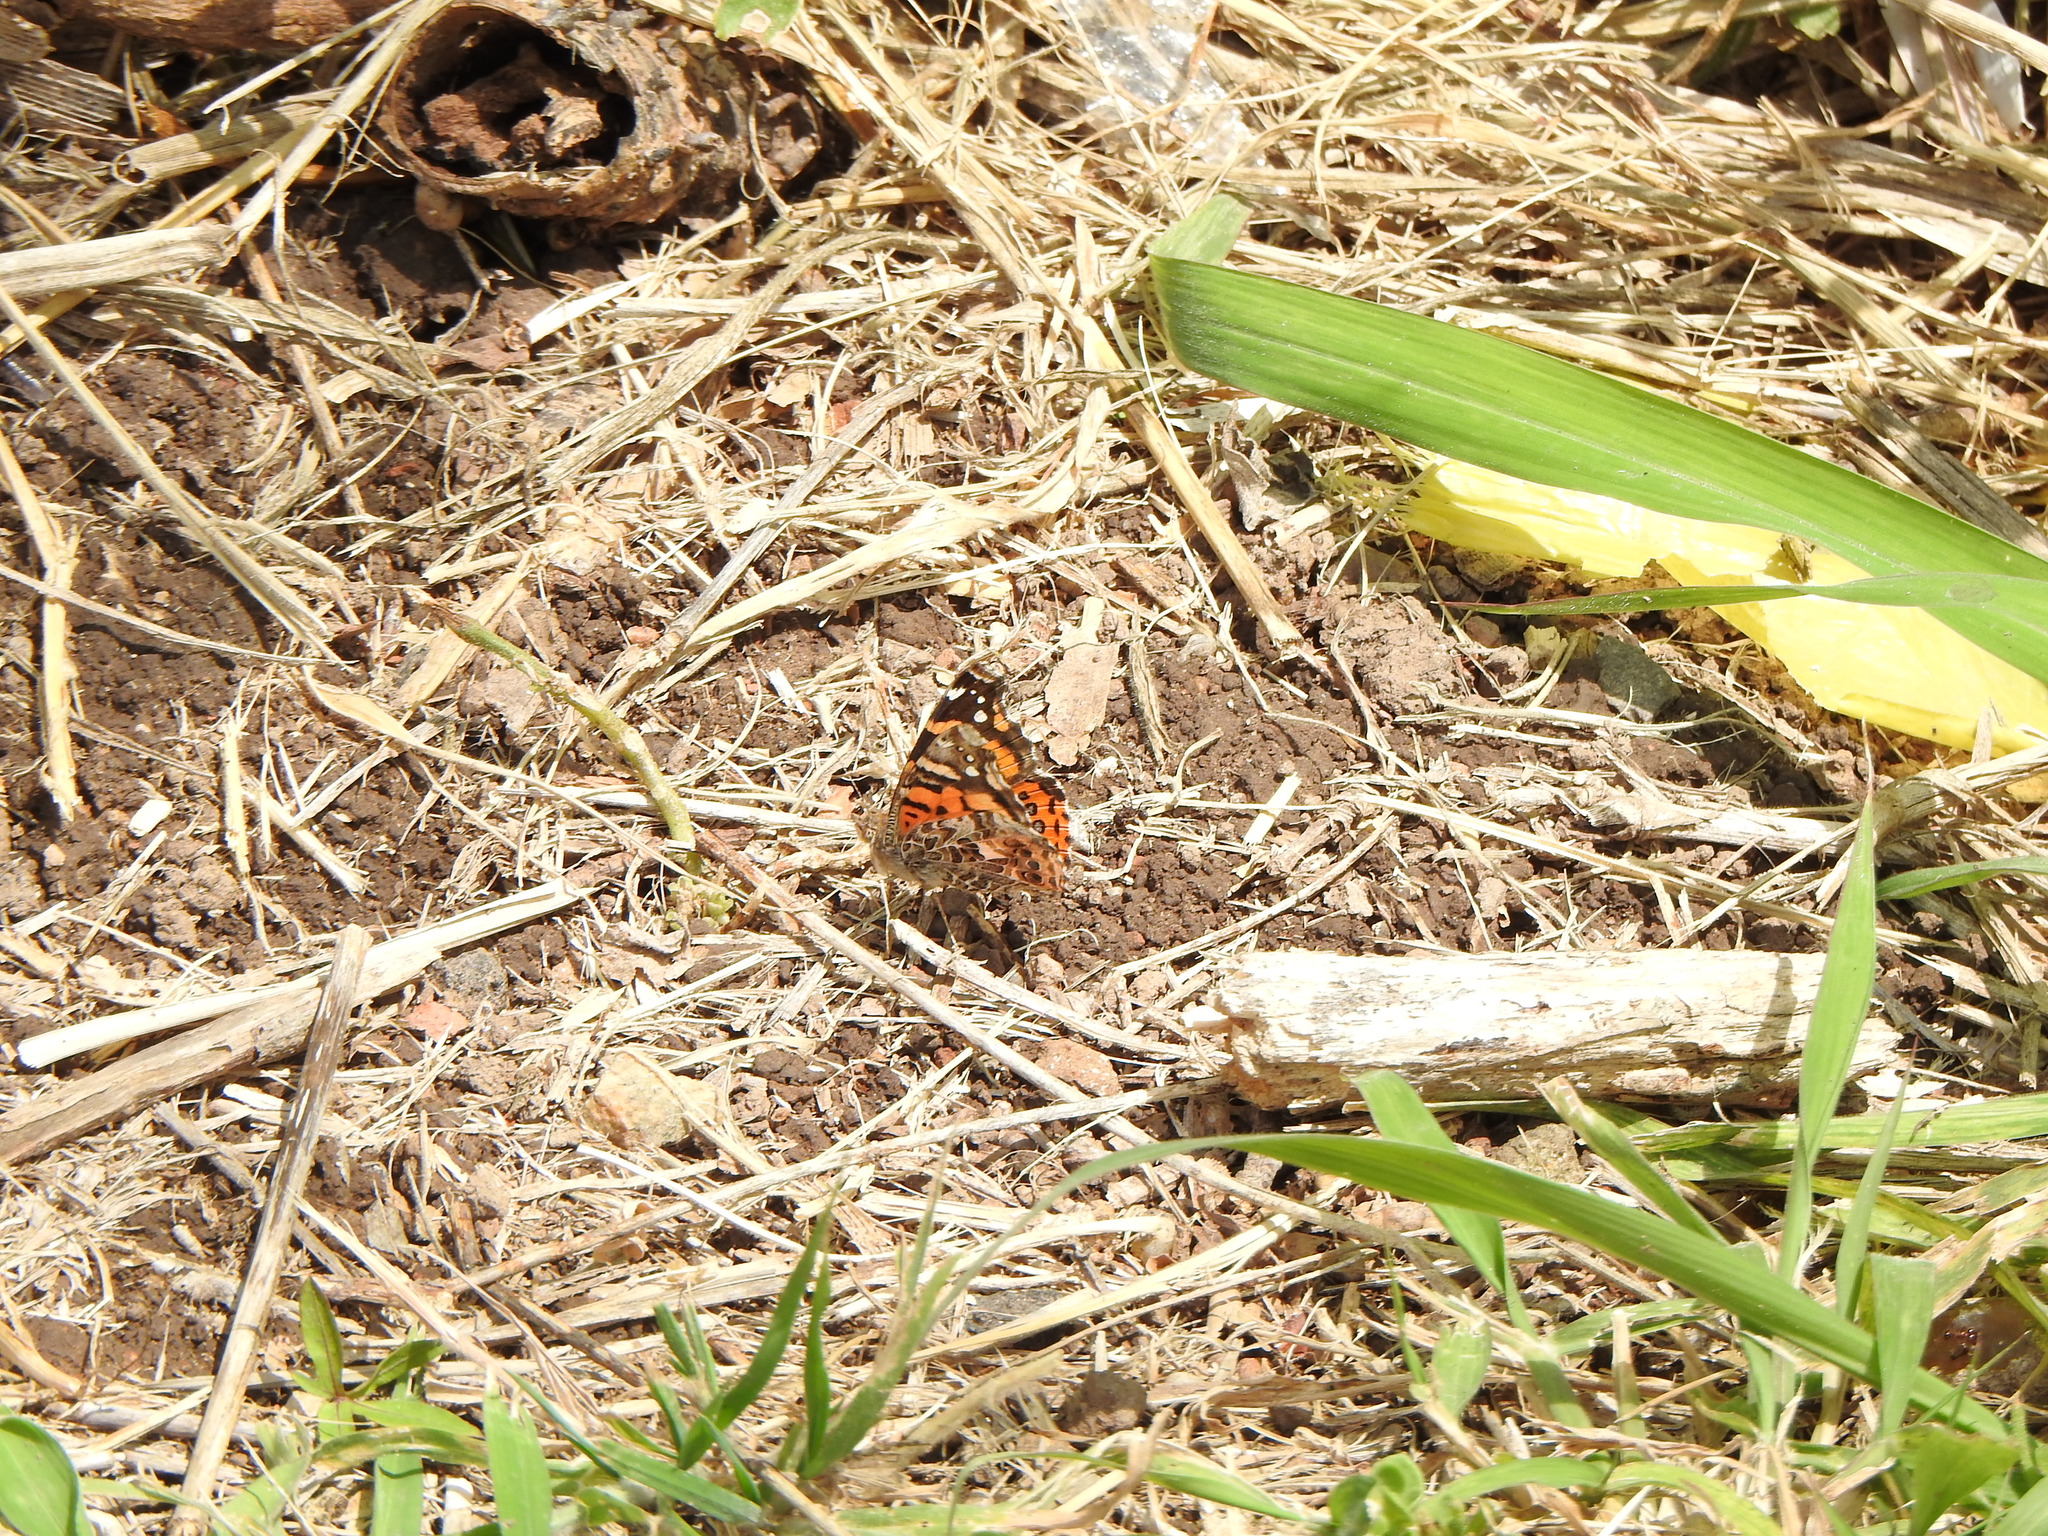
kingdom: Animalia
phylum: Arthropoda
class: Insecta
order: Lepidoptera
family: Nymphalidae
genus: Vanessa
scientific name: Vanessa carye
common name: Subtropical lady
